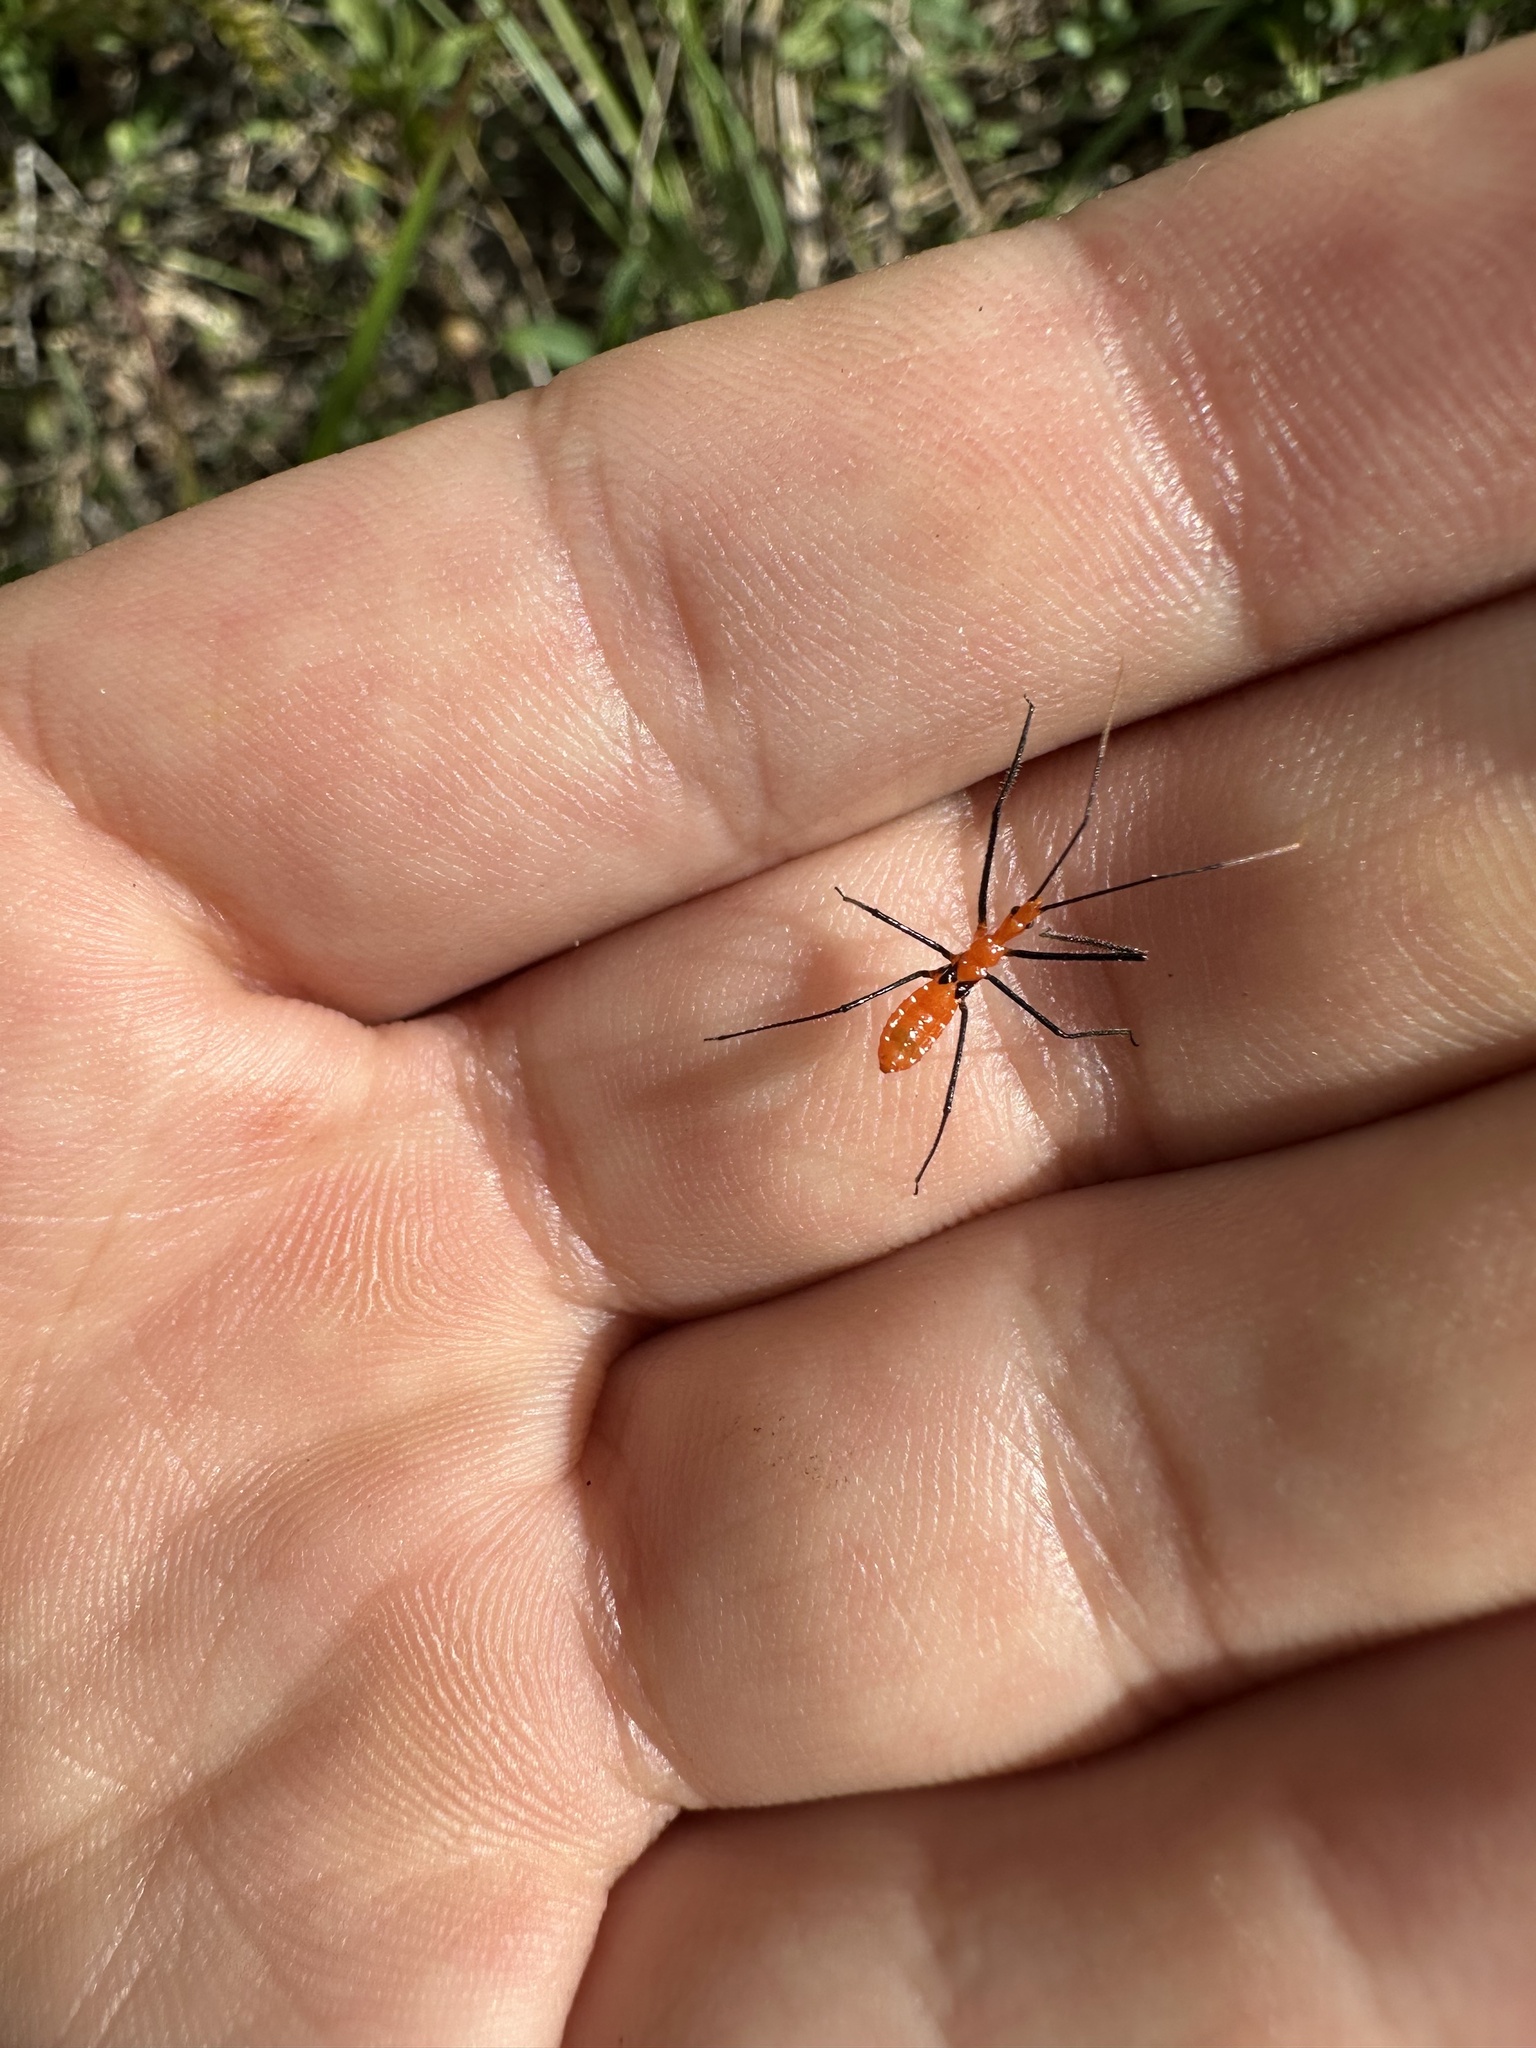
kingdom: Animalia
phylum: Arthropoda
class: Insecta
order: Hemiptera
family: Reduviidae
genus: Zelus
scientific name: Zelus longipes
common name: Milkweed assassin bug
